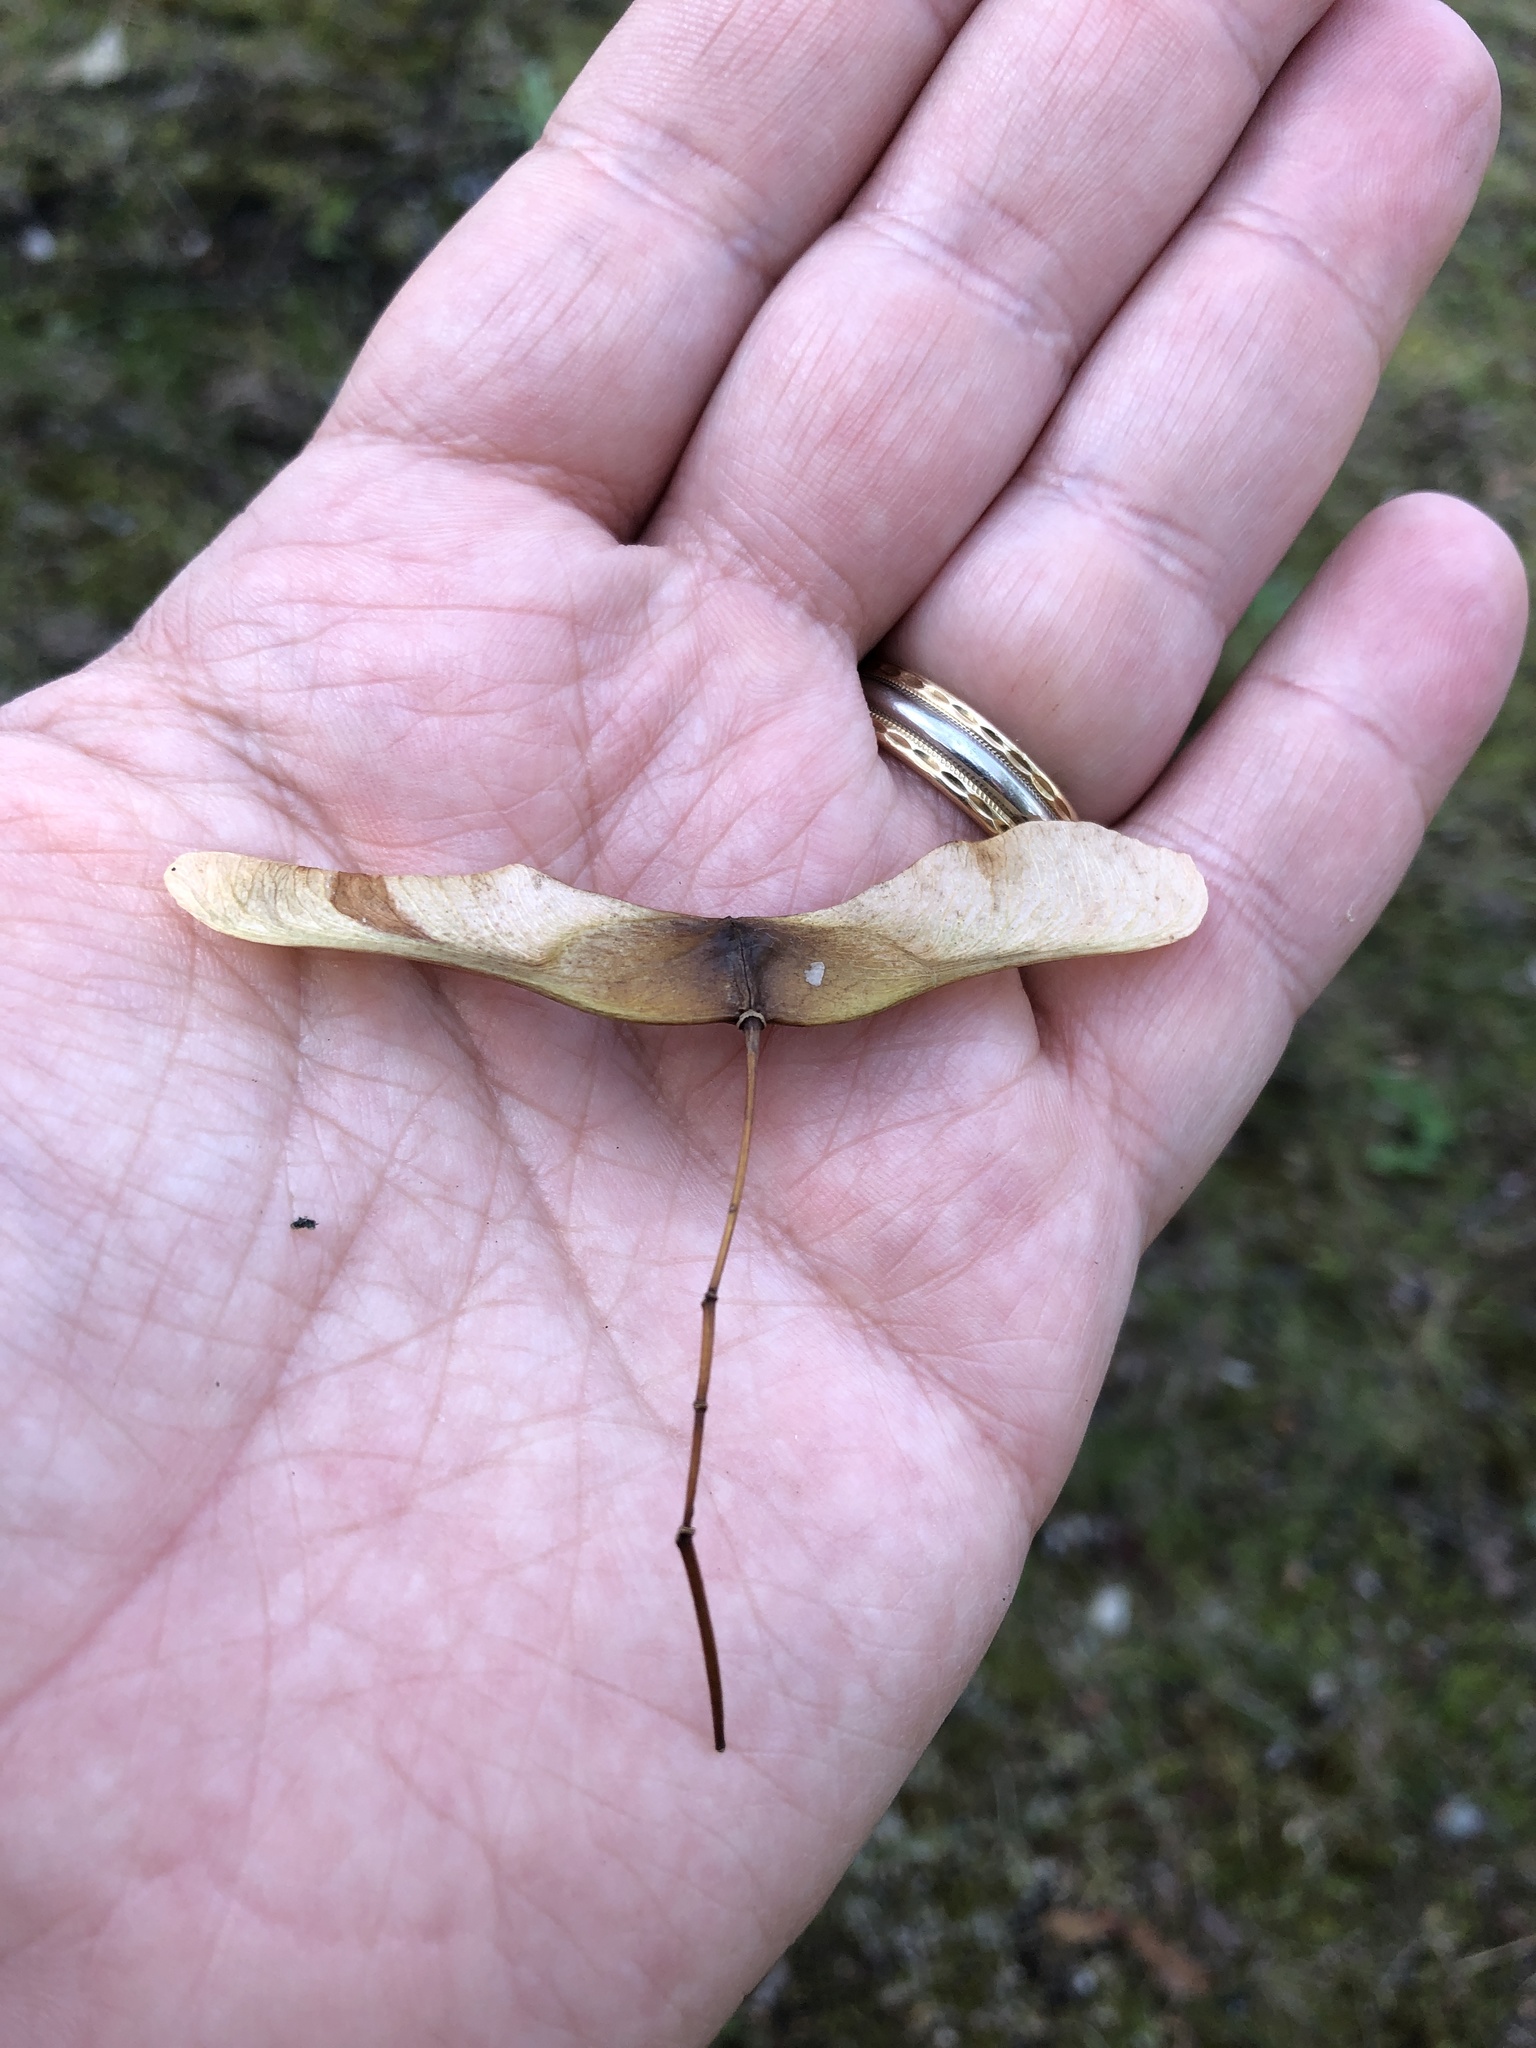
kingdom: Plantae
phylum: Tracheophyta
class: Magnoliopsida
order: Sapindales
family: Sapindaceae
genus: Acer
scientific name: Acer platanoides
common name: Norway maple
